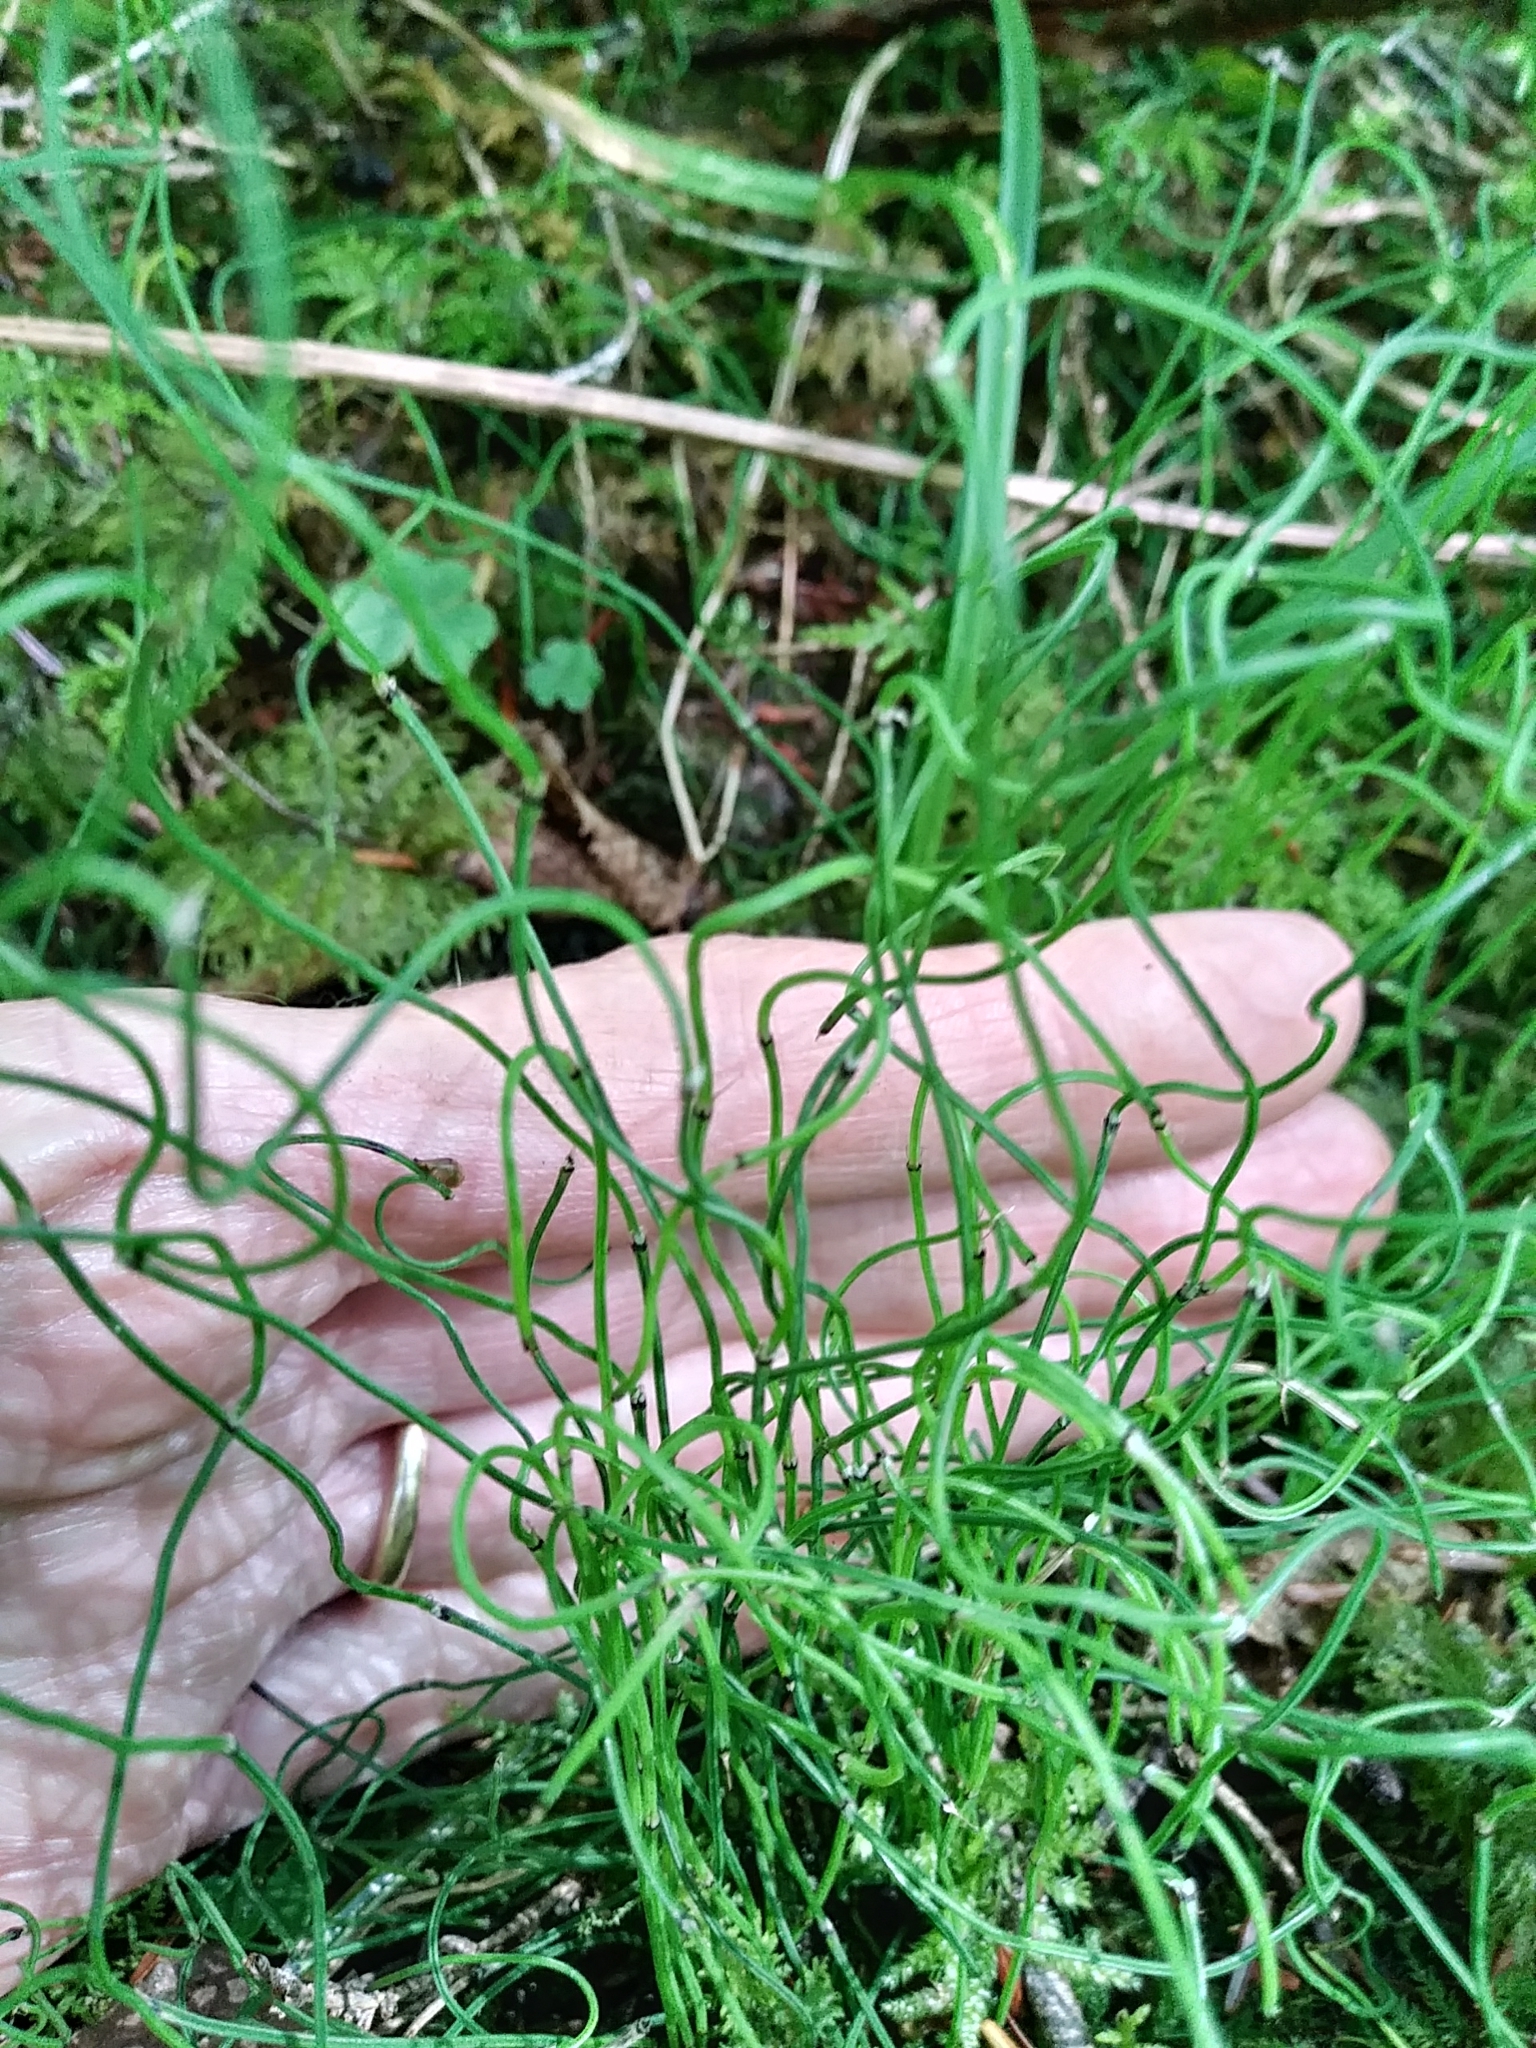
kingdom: Plantae
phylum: Tracheophyta
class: Polypodiopsida
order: Equisetales
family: Equisetaceae
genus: Equisetum
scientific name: Equisetum scirpoides
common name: Delicate horsetail
